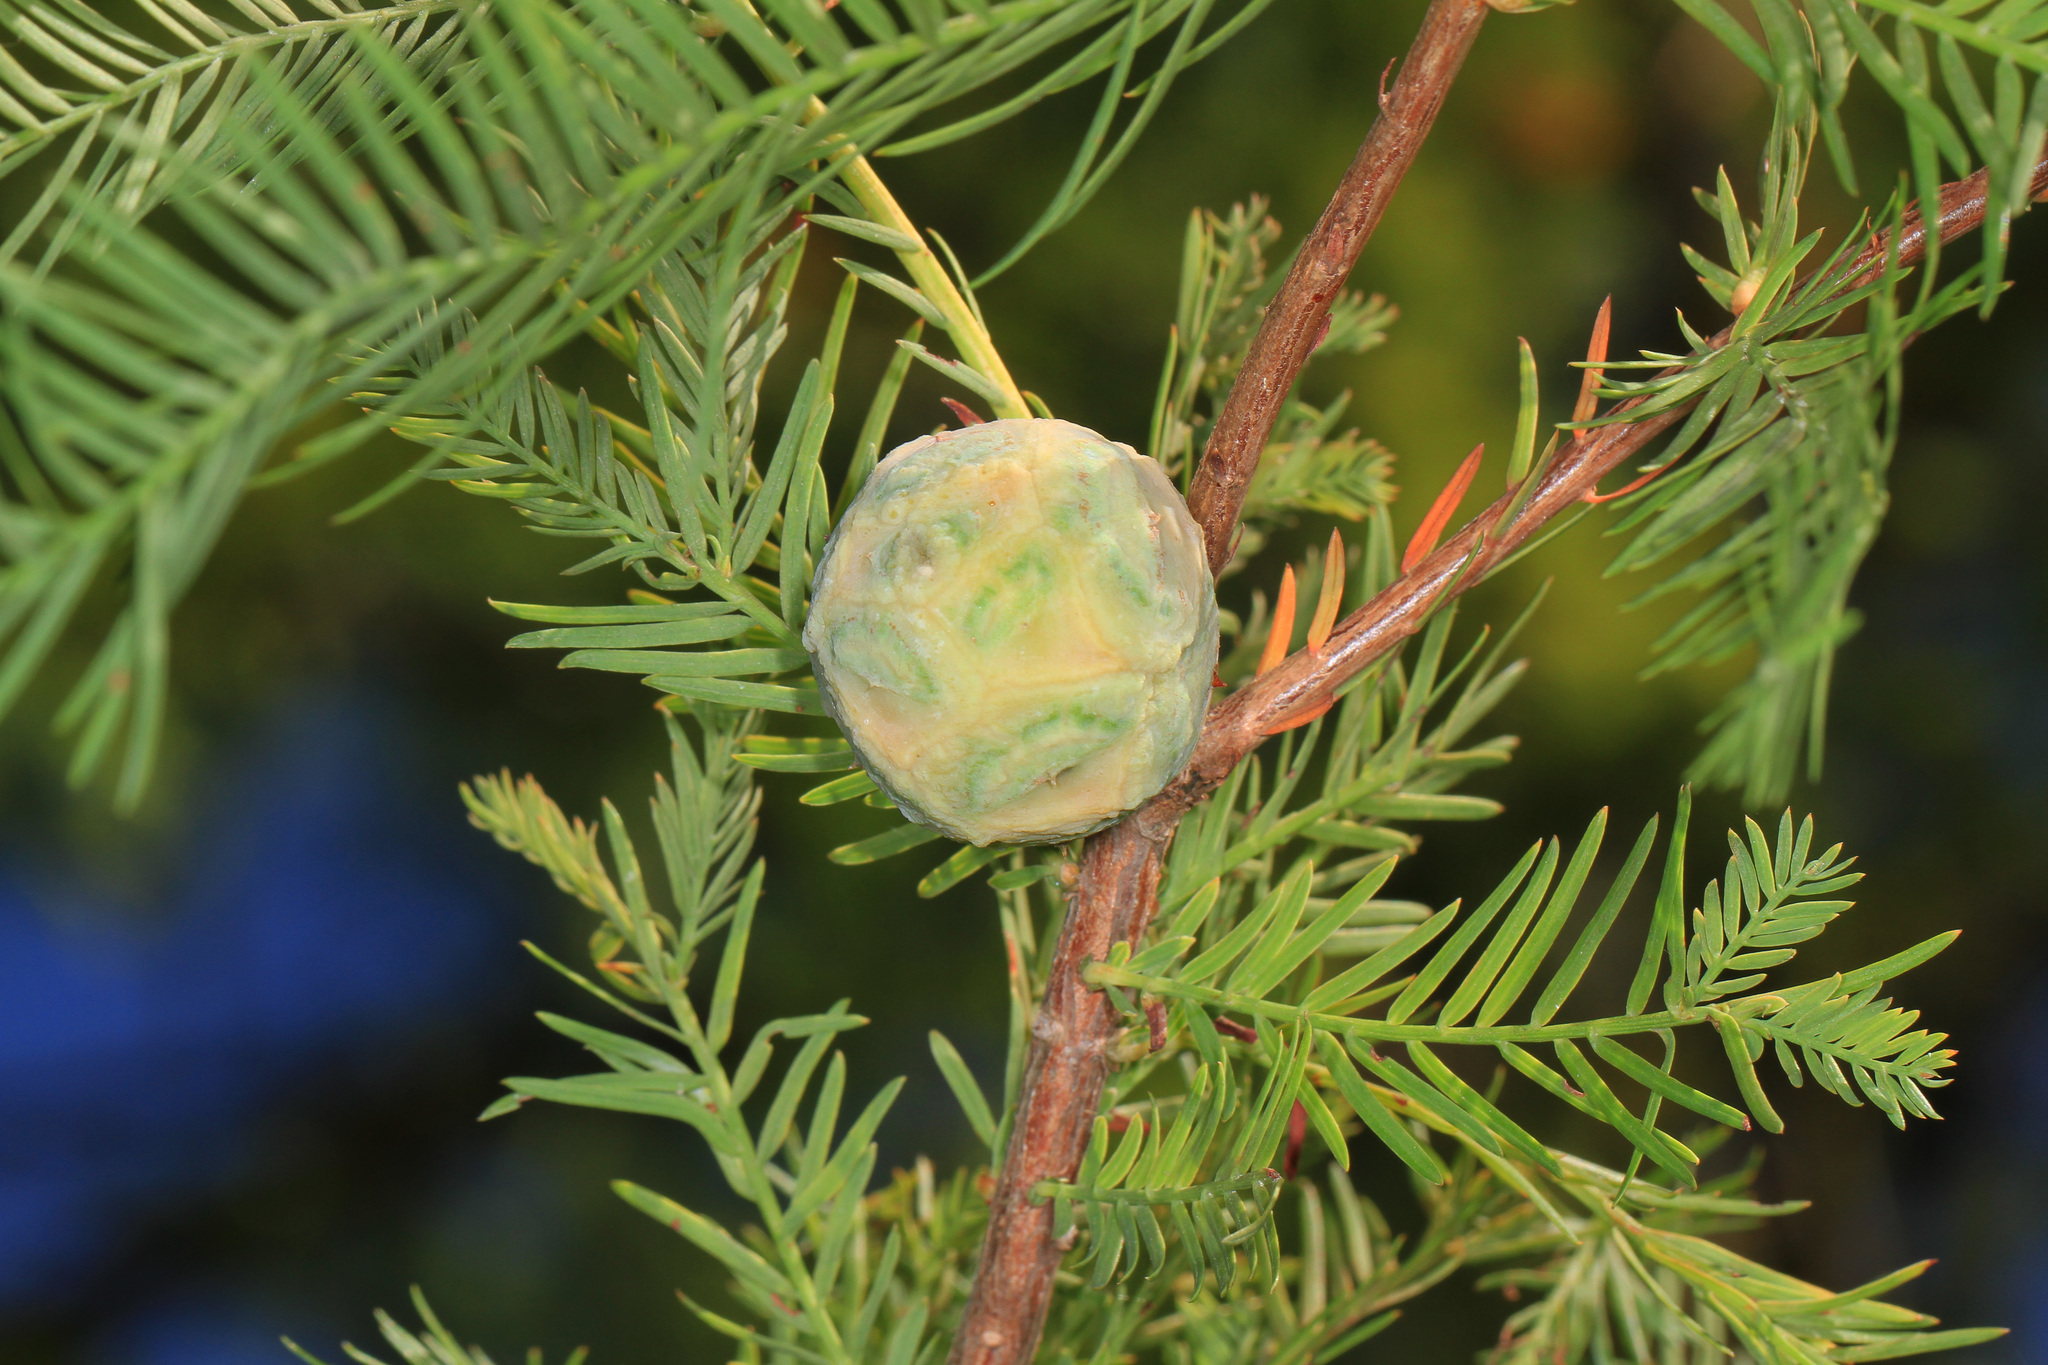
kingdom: Plantae
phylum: Tracheophyta
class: Pinopsida
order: Pinales
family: Cupressaceae
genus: Taxodium
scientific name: Taxodium distichum
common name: Bald cypress
